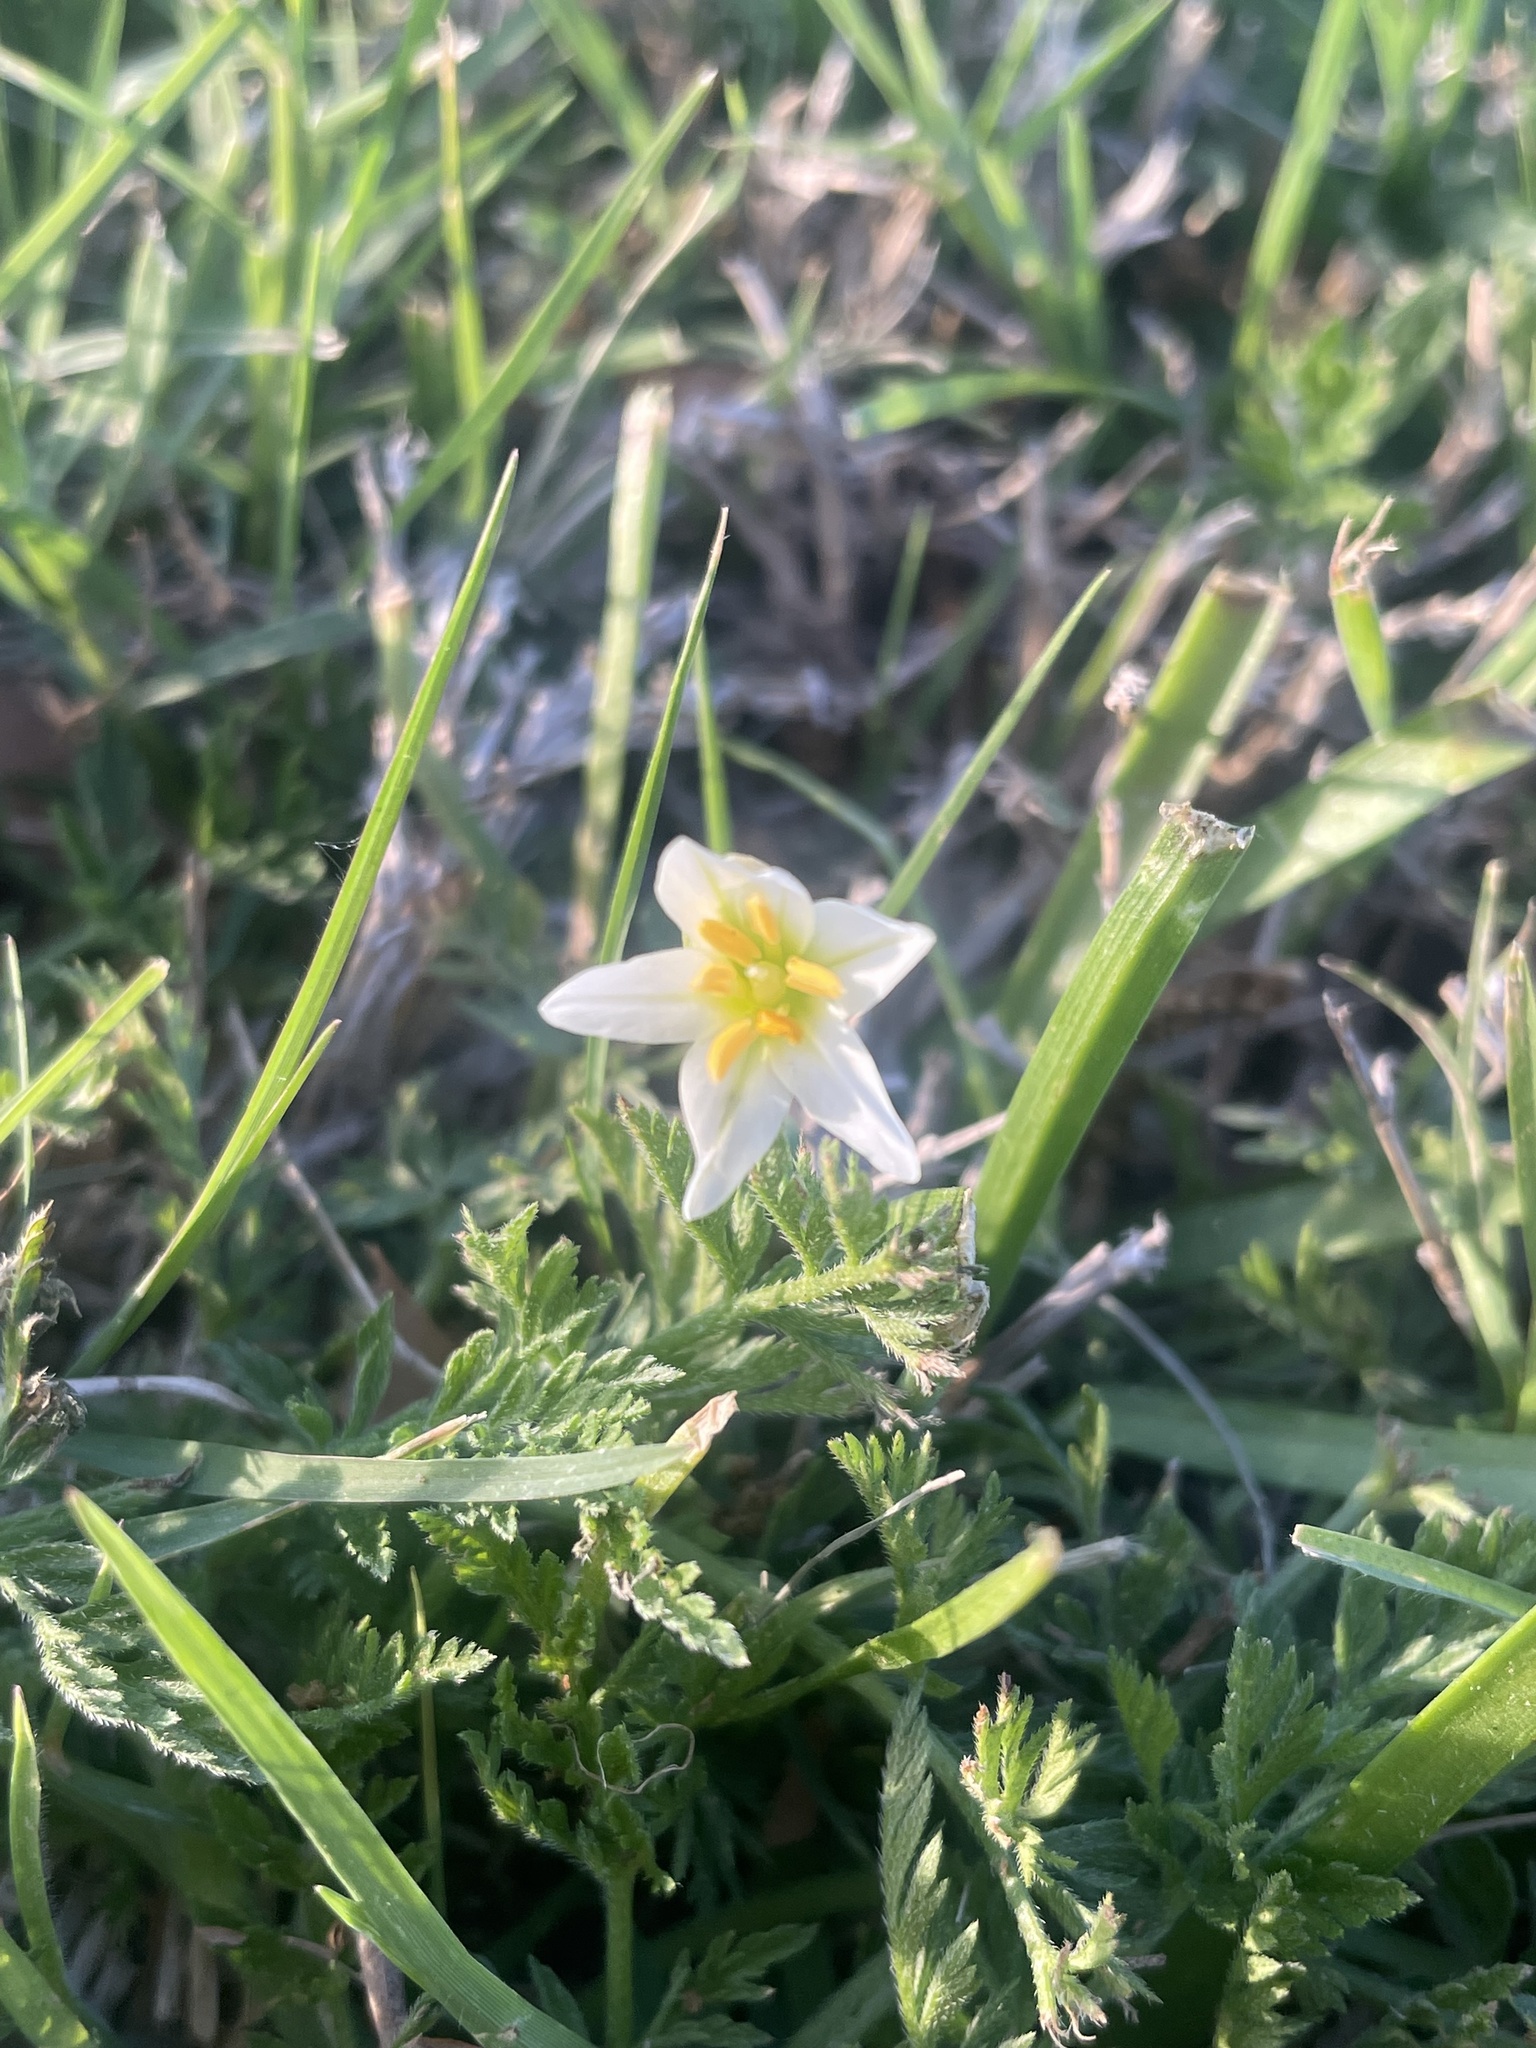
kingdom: Plantae
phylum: Tracheophyta
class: Liliopsida
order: Asparagales
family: Amaryllidaceae
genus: Nothoscordum
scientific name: Nothoscordum bivalve
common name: Crow-poison
